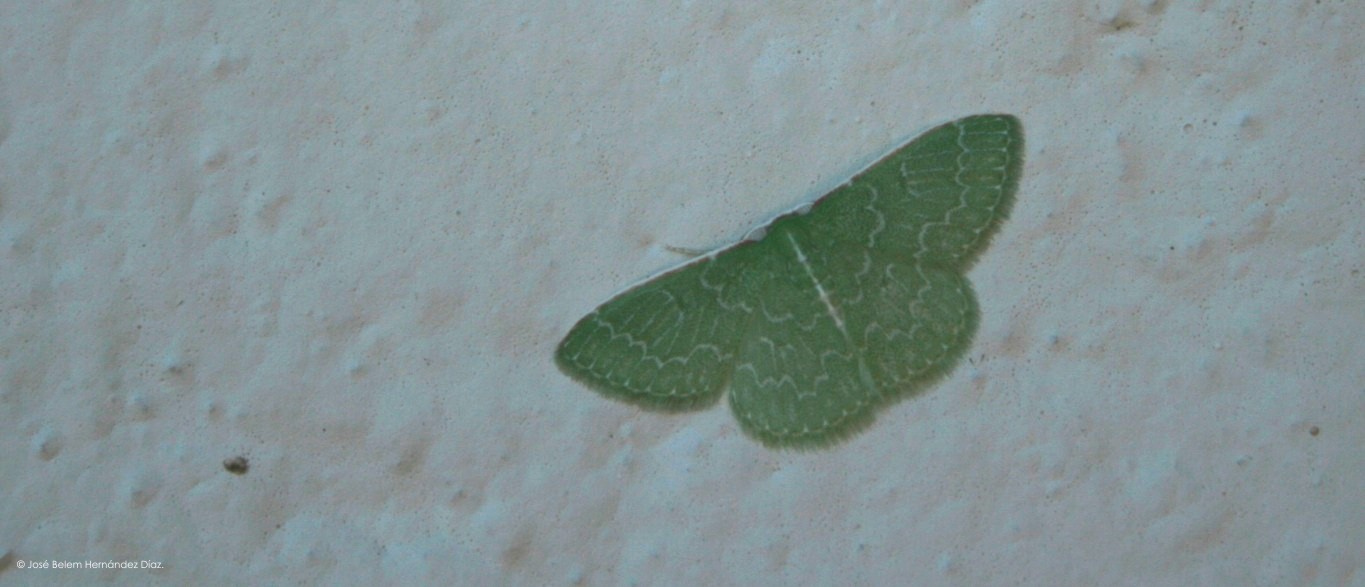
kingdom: Animalia
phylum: Arthropoda
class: Insecta
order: Lepidoptera
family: Geometridae
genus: Synchlora
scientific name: Synchlora frondaria
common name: Southern emerald
